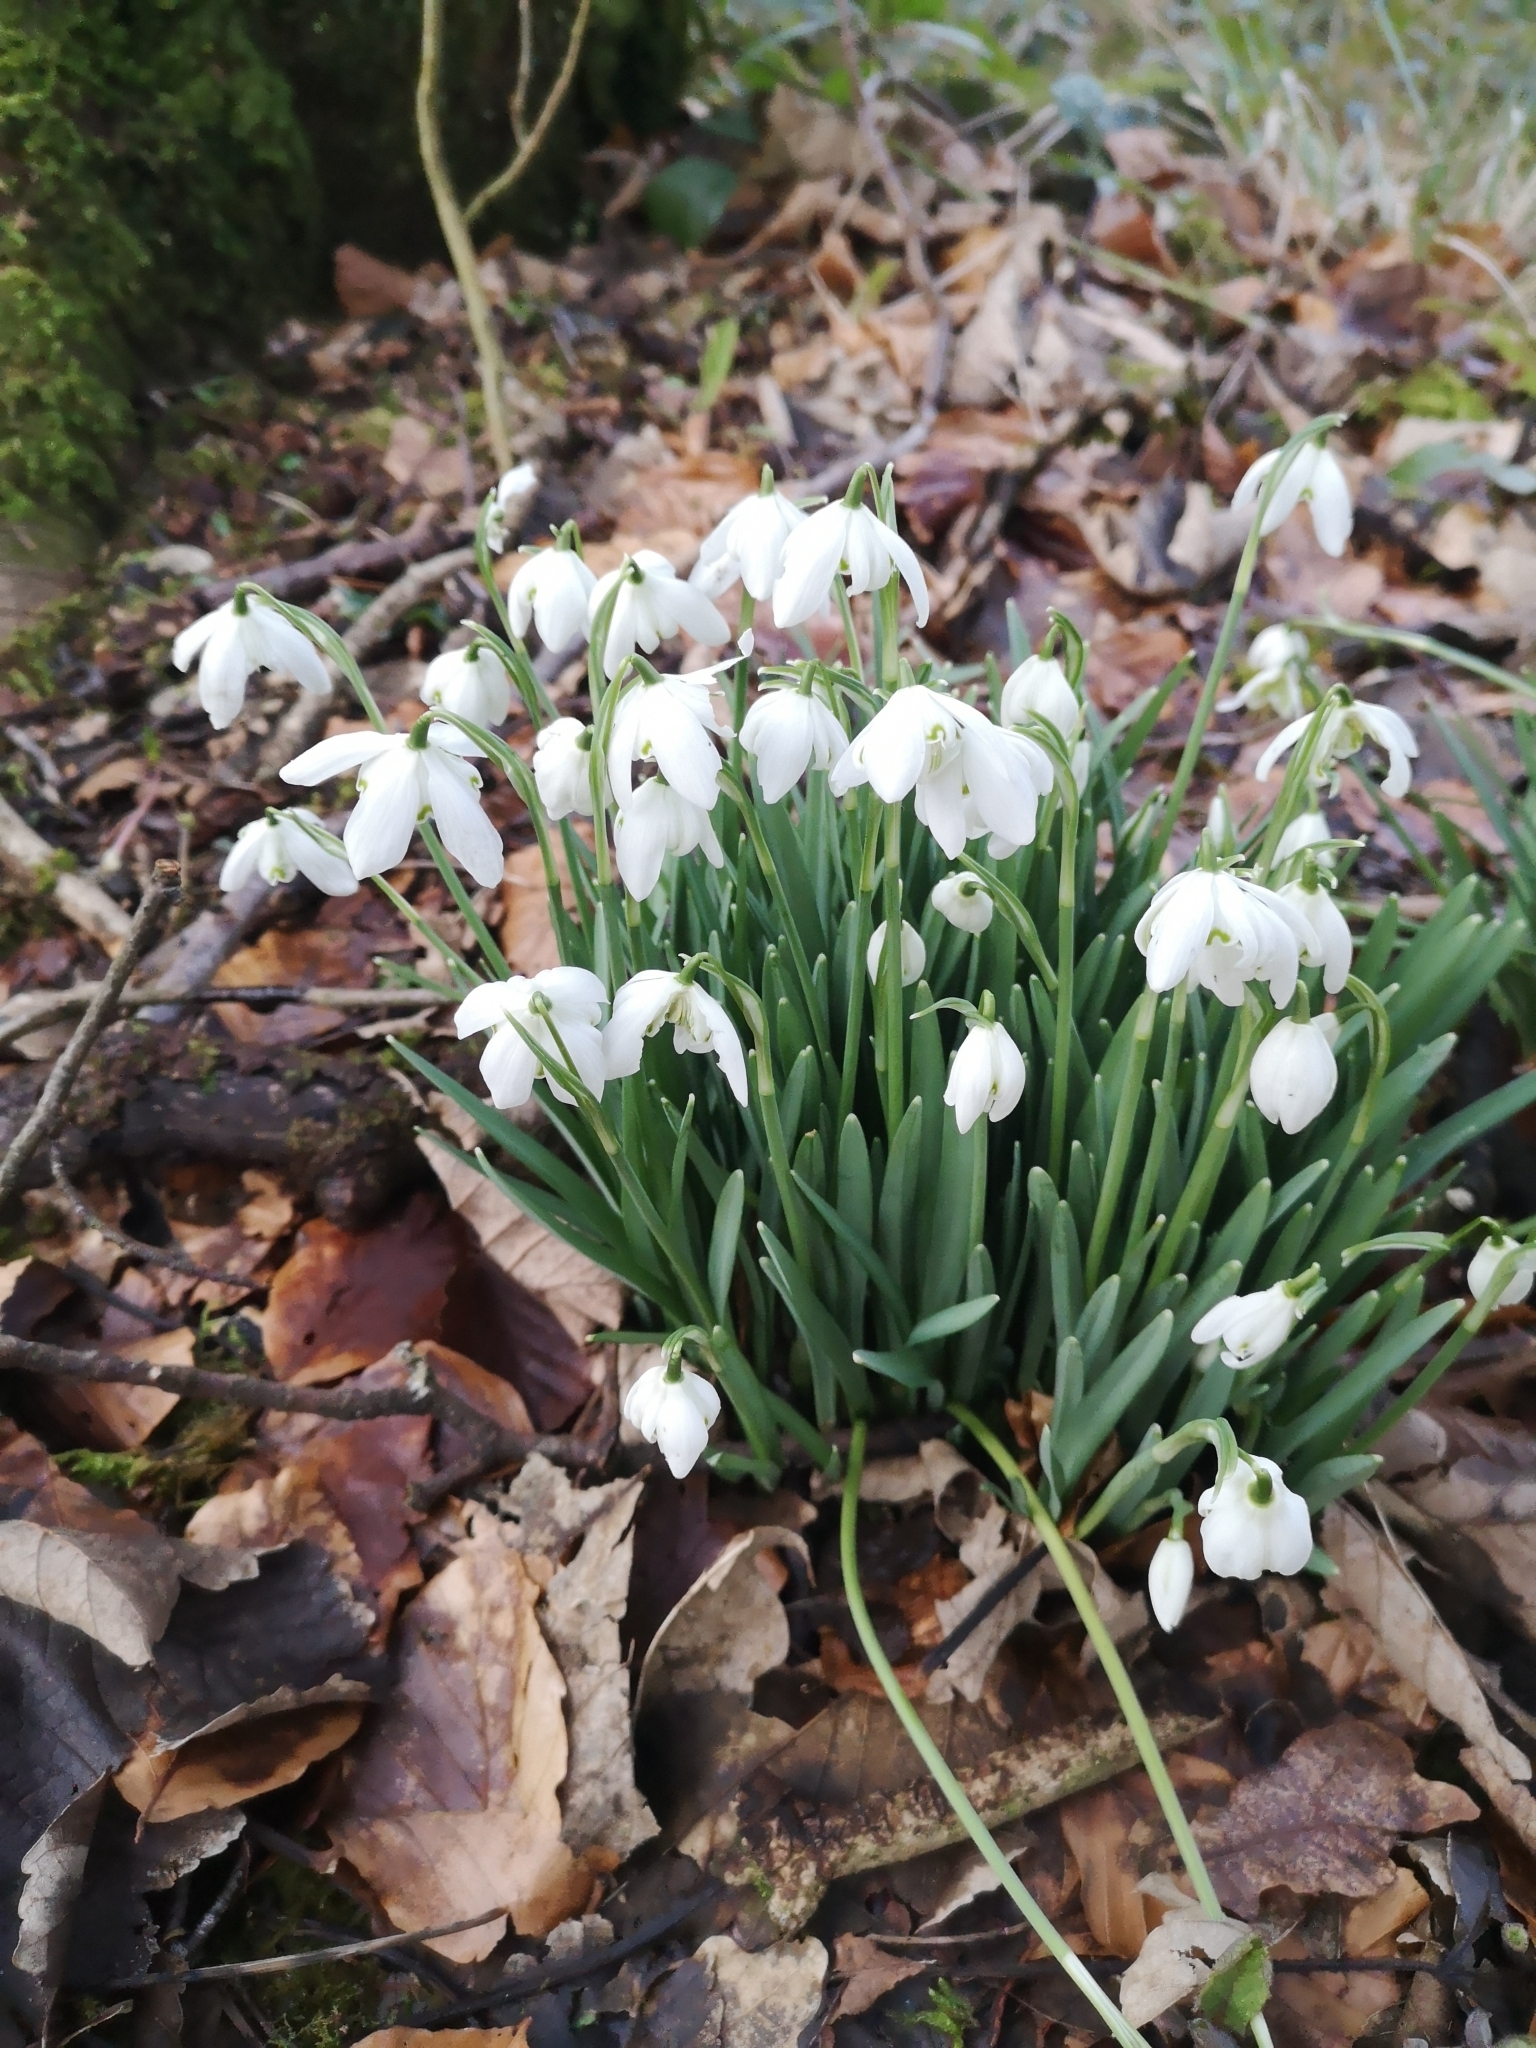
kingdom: Plantae
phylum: Tracheophyta
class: Liliopsida
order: Asparagales
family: Amaryllidaceae
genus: Galanthus
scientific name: Galanthus nivalis
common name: Snowdrop
